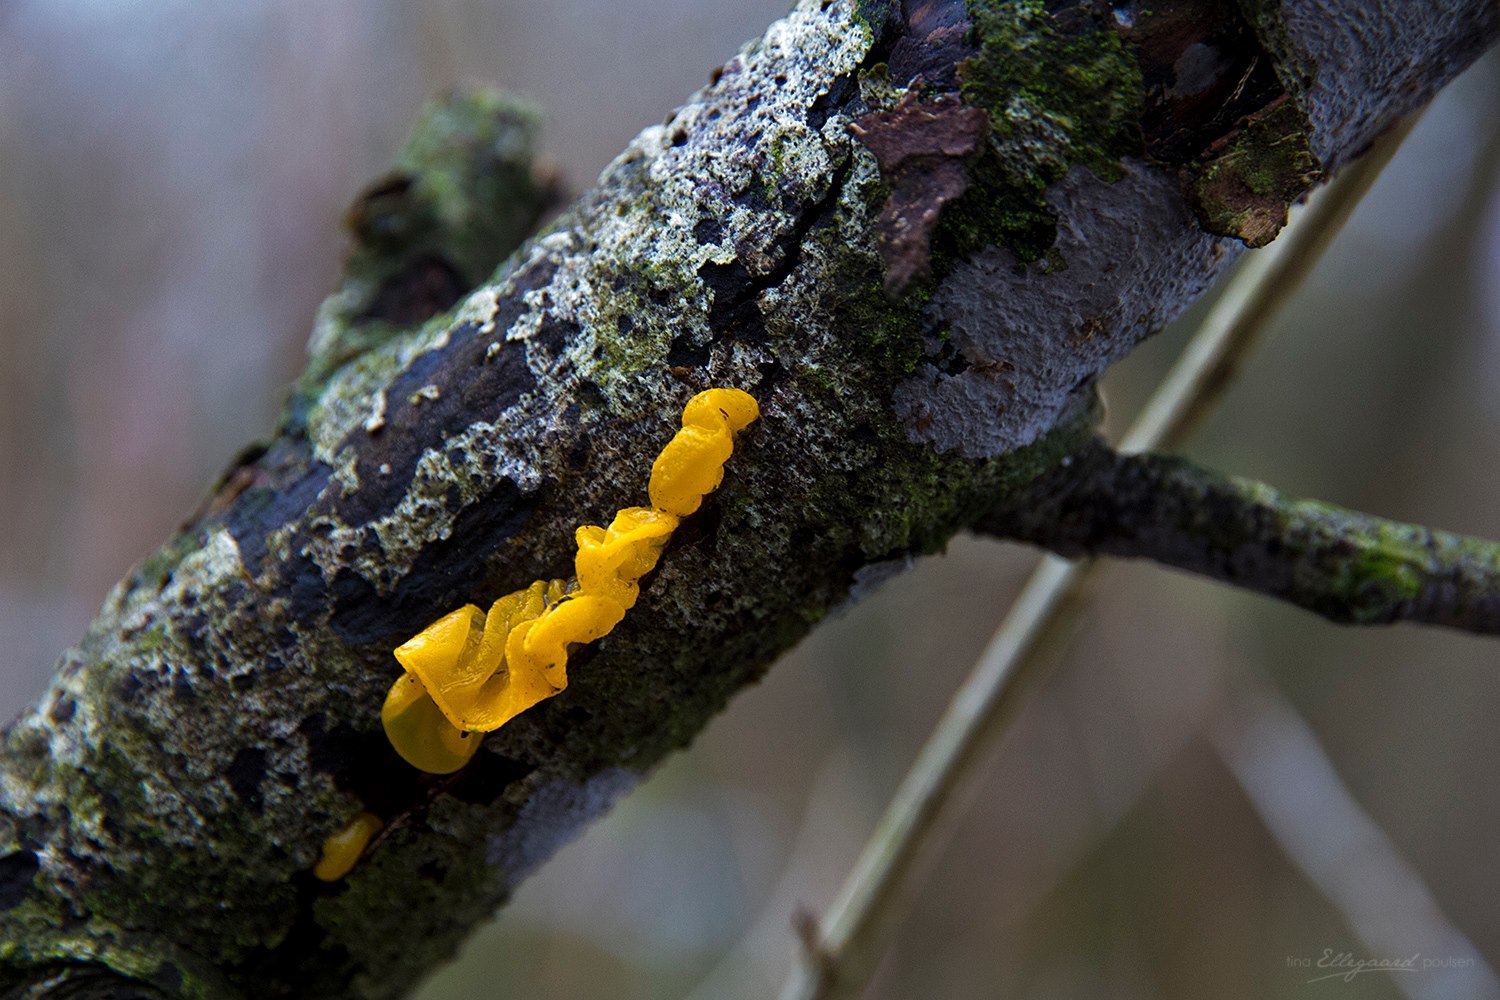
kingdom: Fungi
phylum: Basidiomycota
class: Tremellomycetes
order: Tremellales
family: Tremellaceae
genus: Tremella
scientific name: Tremella mesenterica
